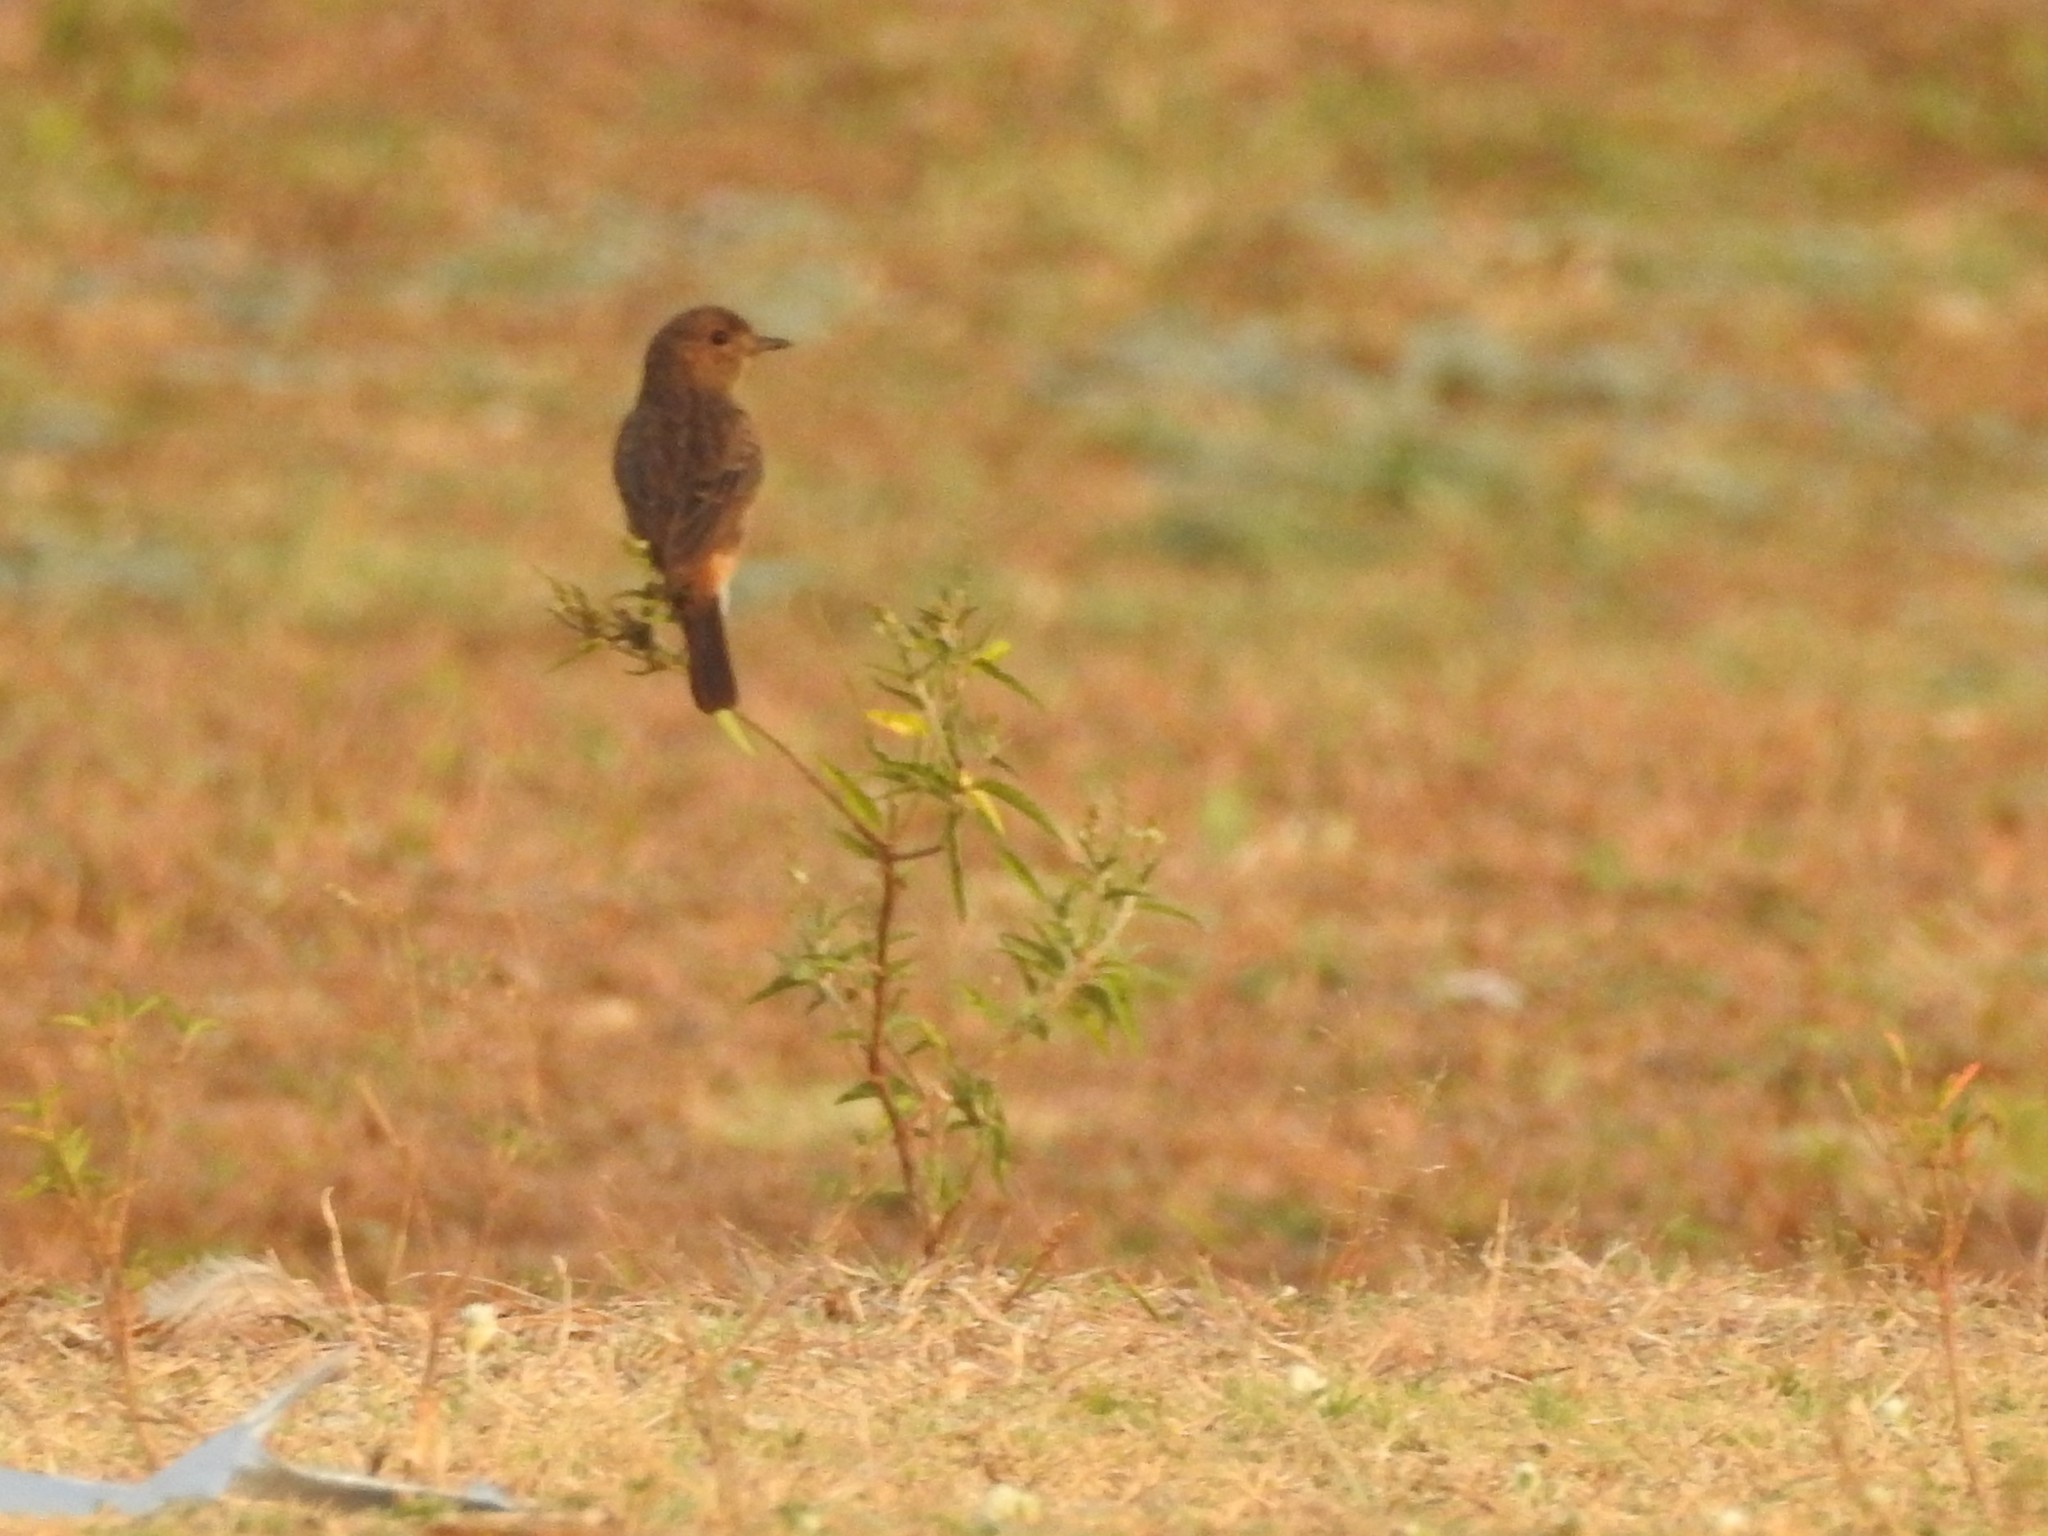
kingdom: Animalia
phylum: Chordata
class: Aves
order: Passeriformes
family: Muscicapidae
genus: Saxicola
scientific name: Saxicola caprata
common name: Pied bush chat
